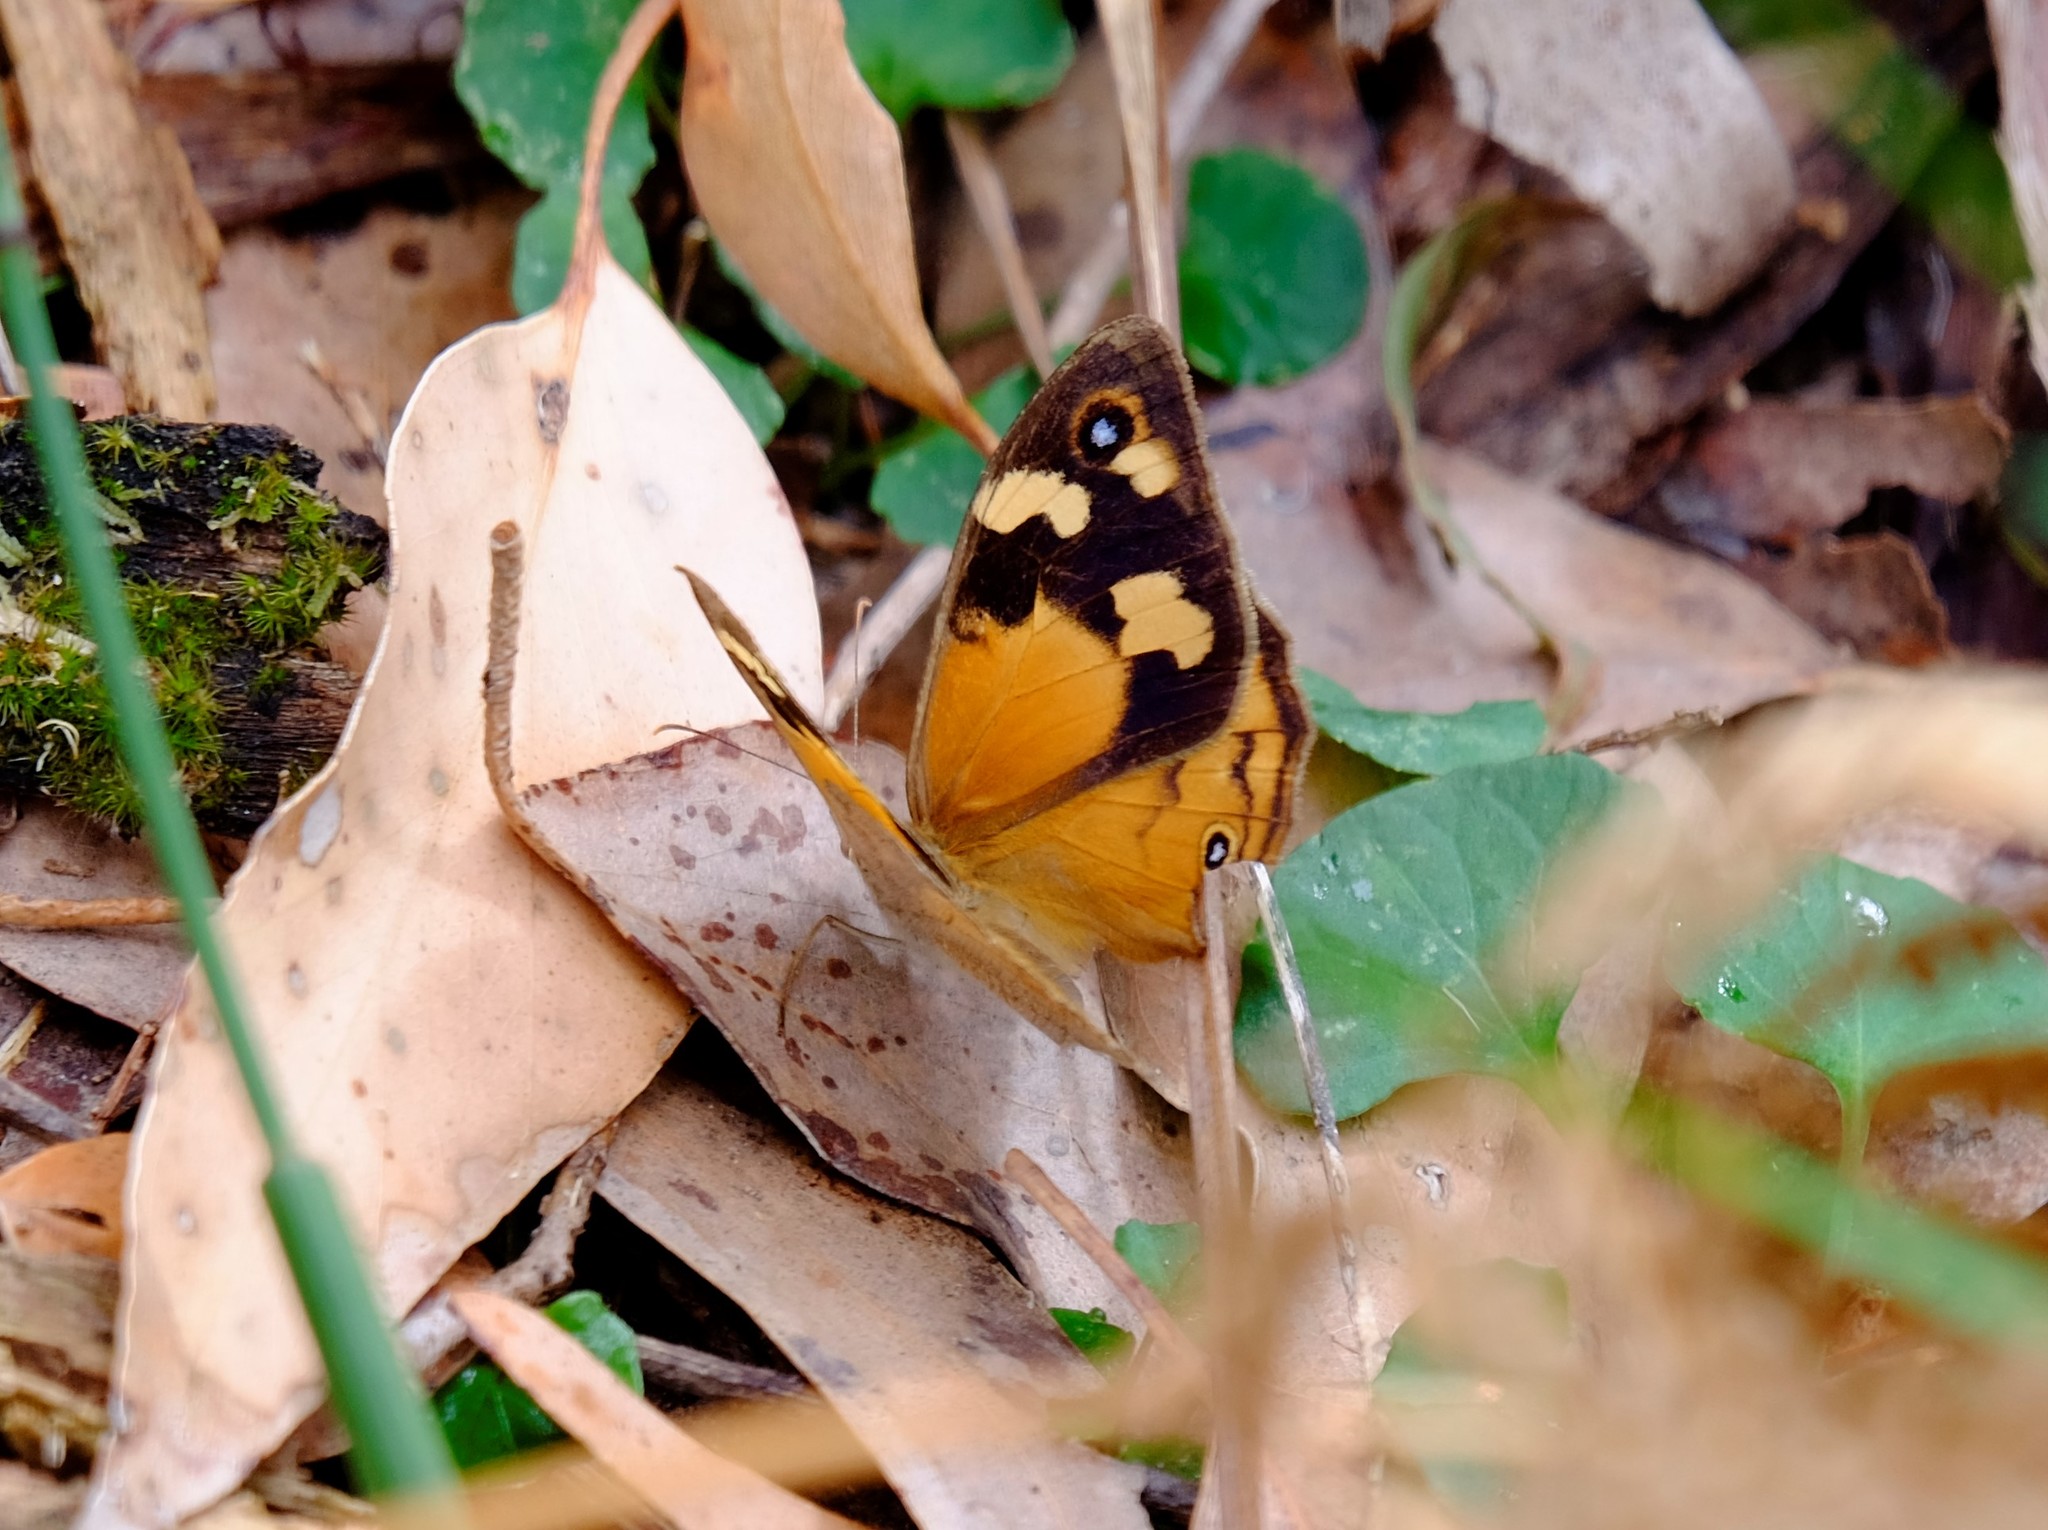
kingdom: Animalia
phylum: Arthropoda
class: Insecta
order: Lepidoptera
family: Nymphalidae
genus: Heteronympha
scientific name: Heteronympha merope
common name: Common brown
